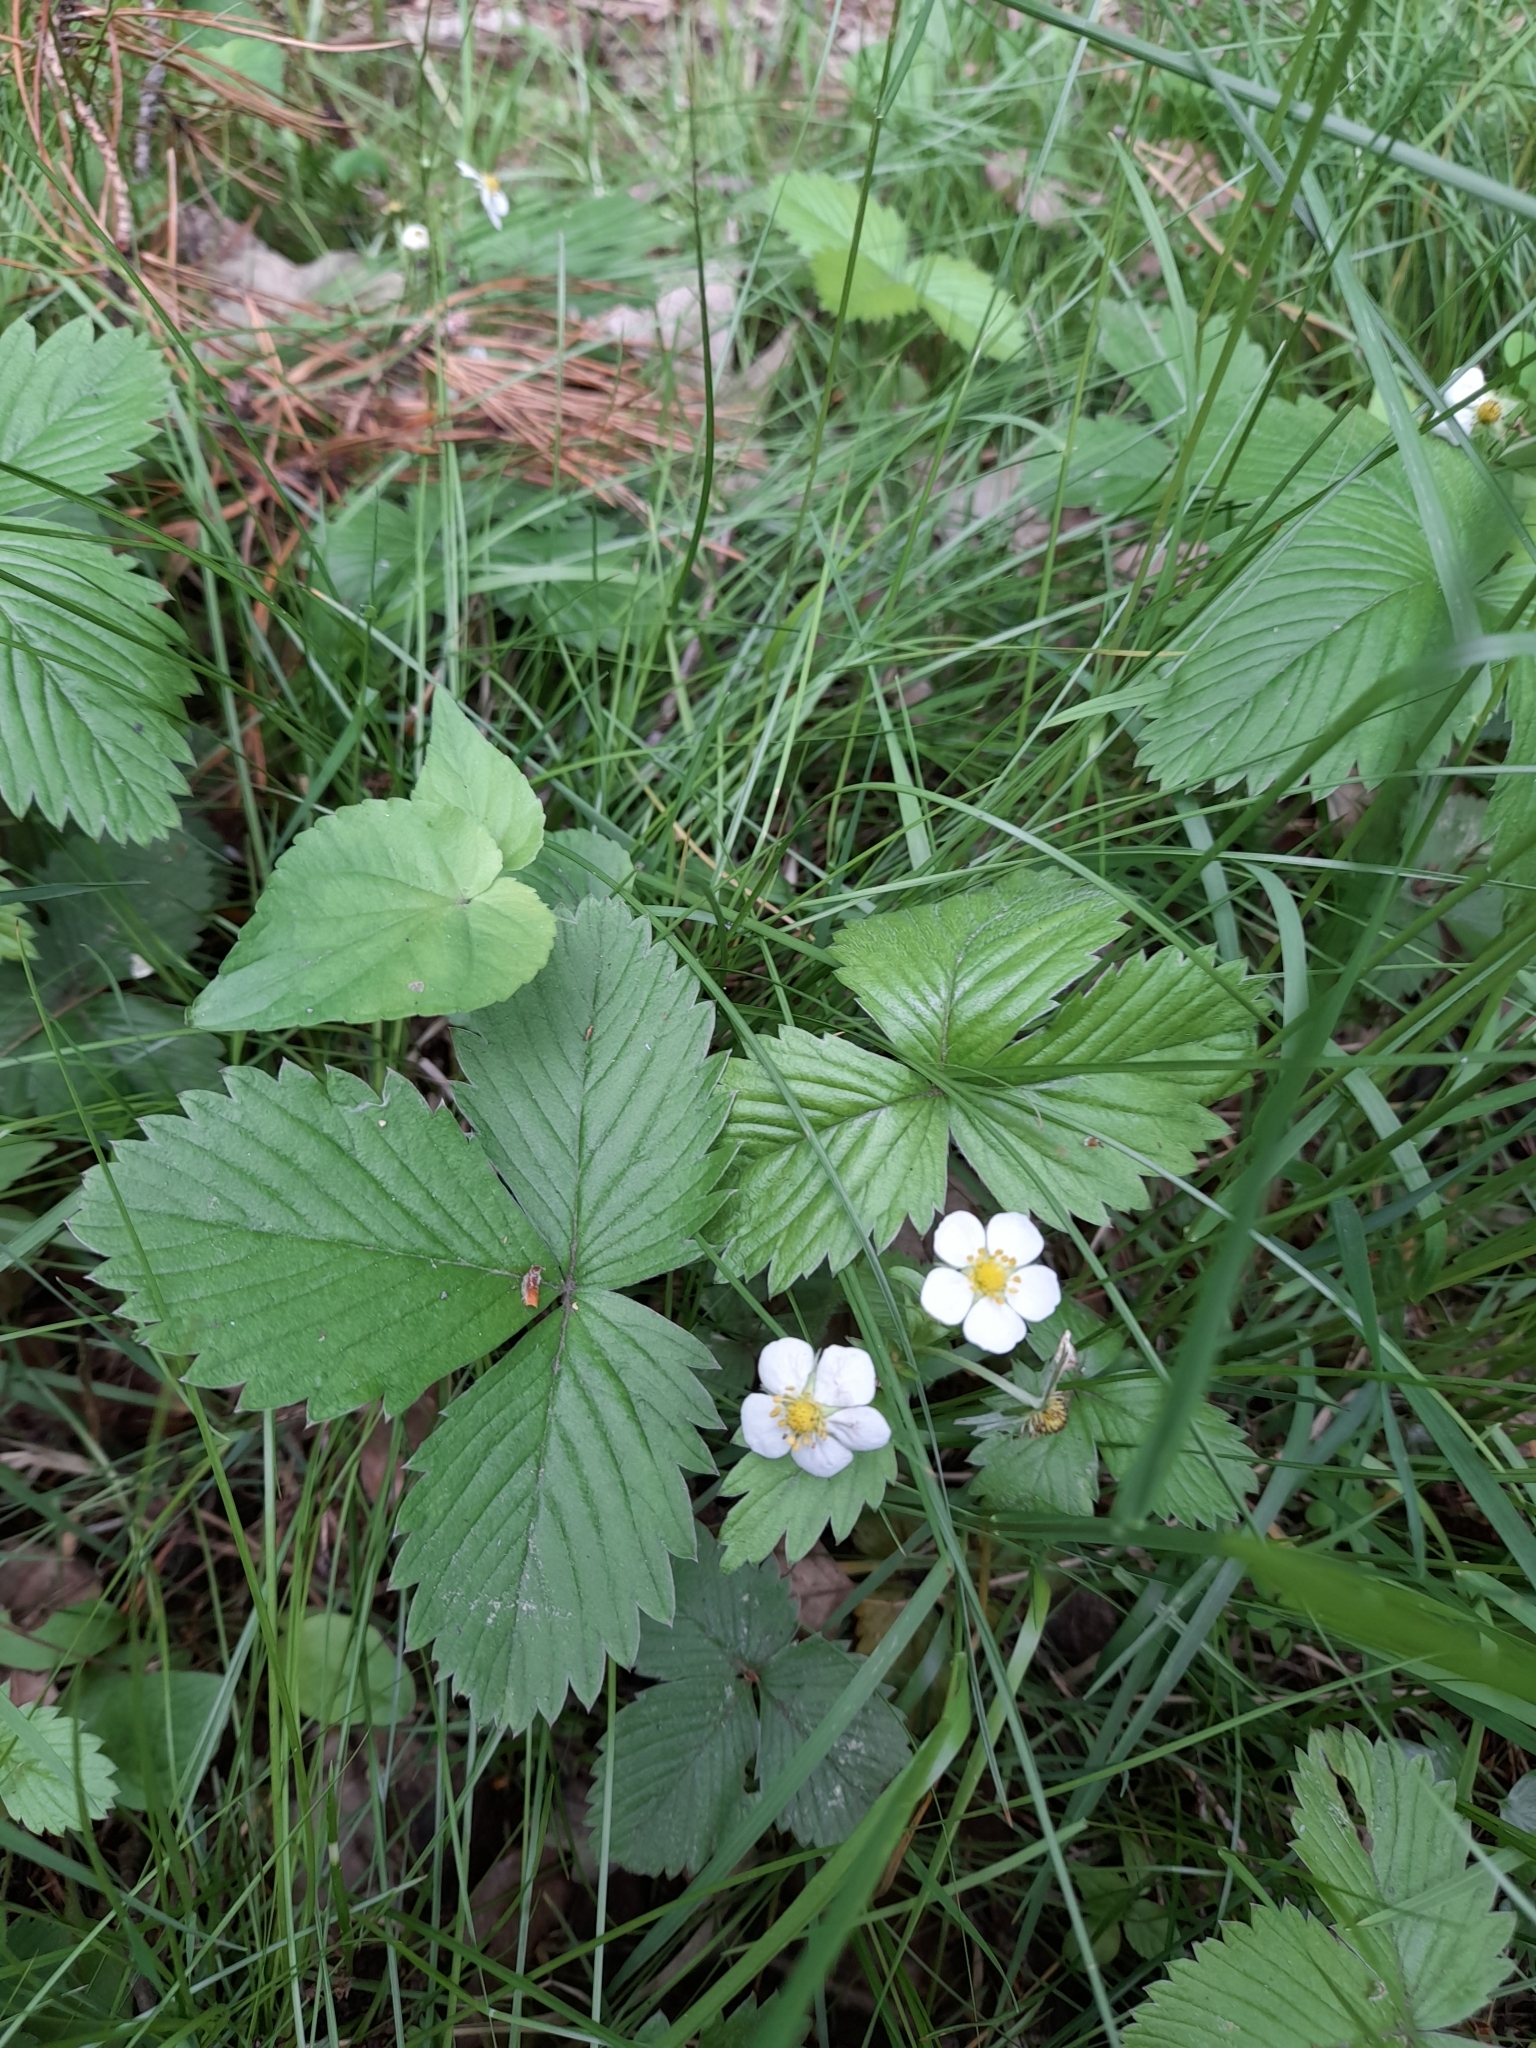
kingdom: Plantae
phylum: Tracheophyta
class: Magnoliopsida
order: Rosales
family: Rosaceae
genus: Fragaria
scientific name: Fragaria vesca
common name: Wild strawberry
